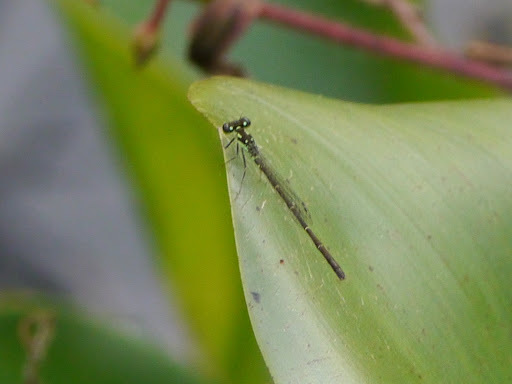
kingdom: Animalia
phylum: Arthropoda
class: Insecta
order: Odonata
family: Coenagrionidae
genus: Ischnura
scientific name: Ischnura posita
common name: Fragile forktail
